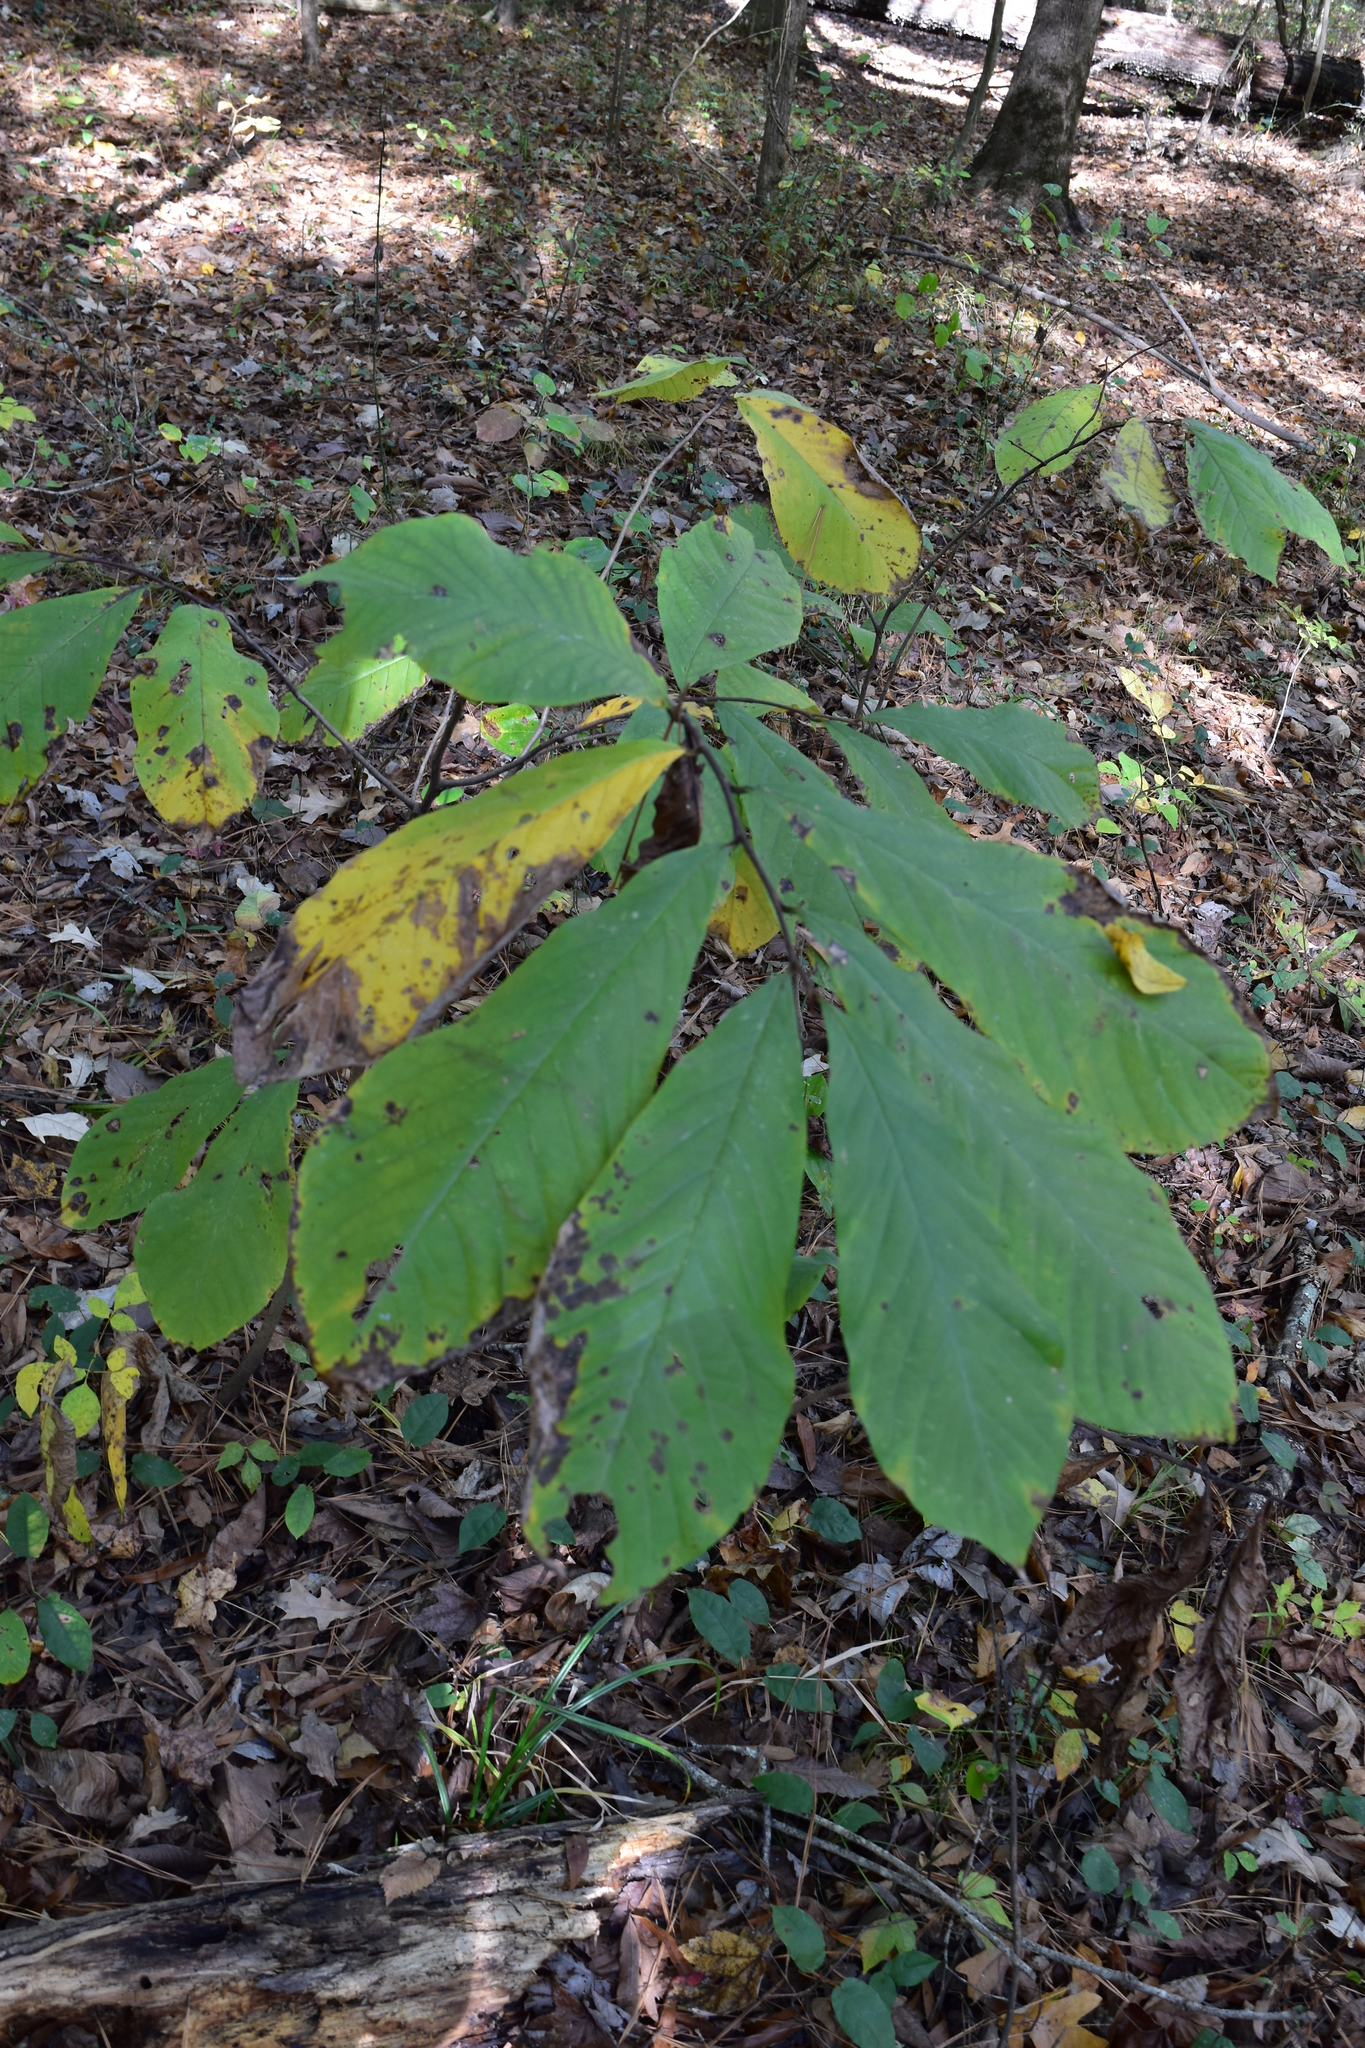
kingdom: Plantae
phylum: Tracheophyta
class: Magnoliopsida
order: Magnoliales
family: Annonaceae
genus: Asimina
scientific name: Asimina triloba
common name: Dog-banana
